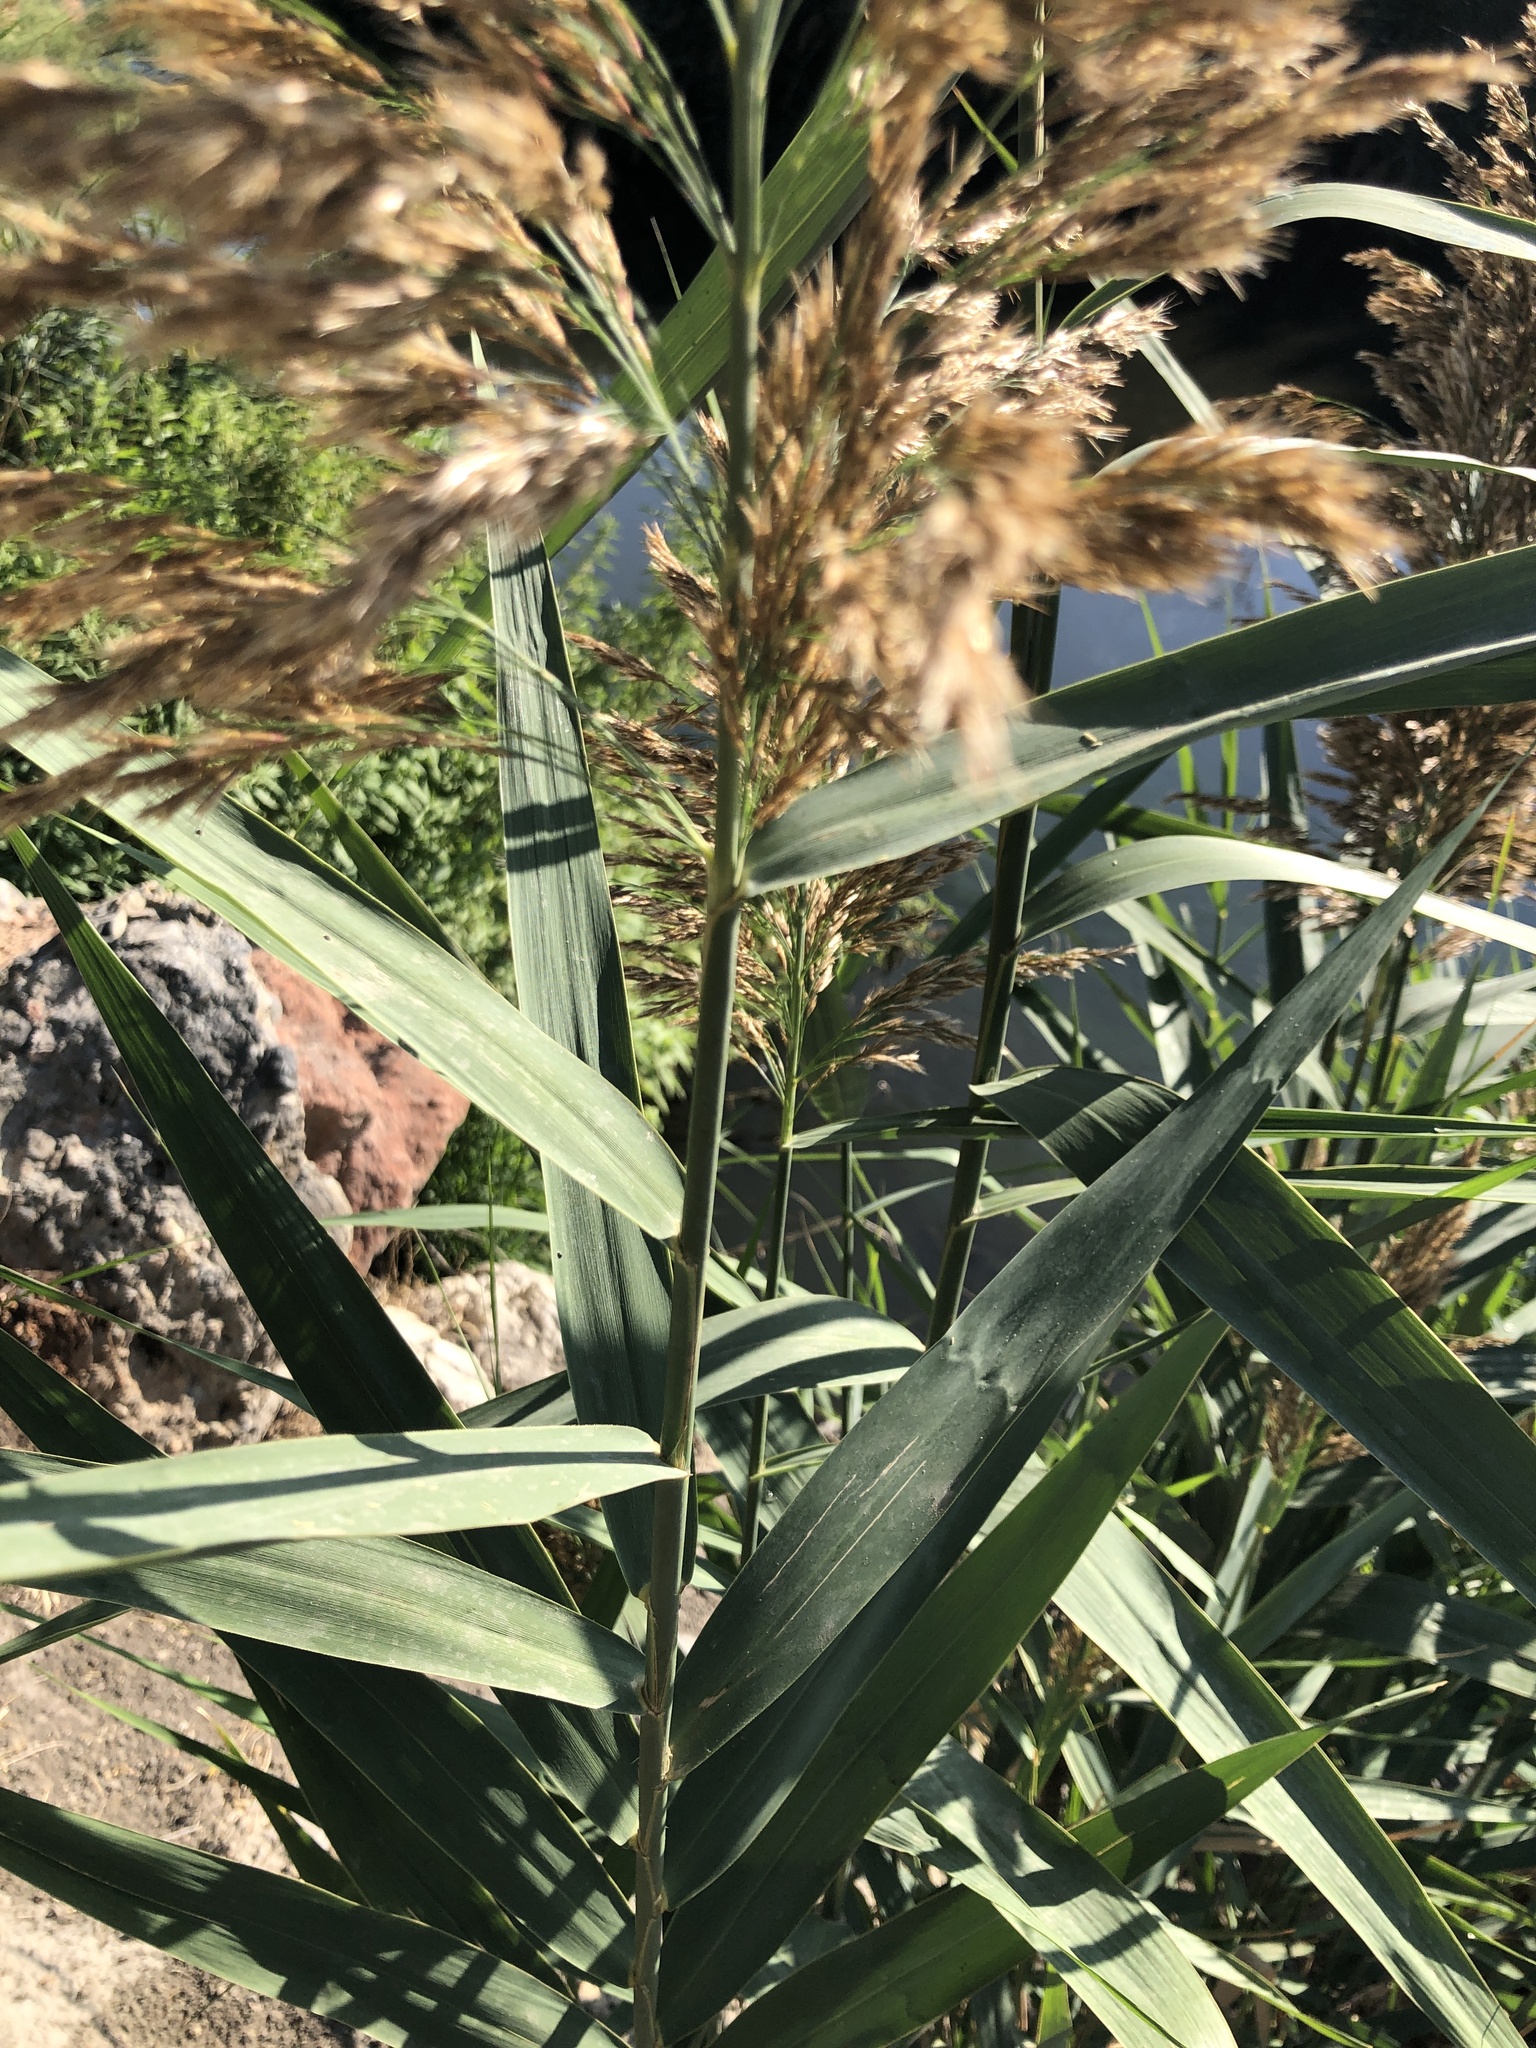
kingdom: Plantae
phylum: Tracheophyta
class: Liliopsida
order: Poales
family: Poaceae
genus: Phragmites
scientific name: Phragmites australis
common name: Common reed
